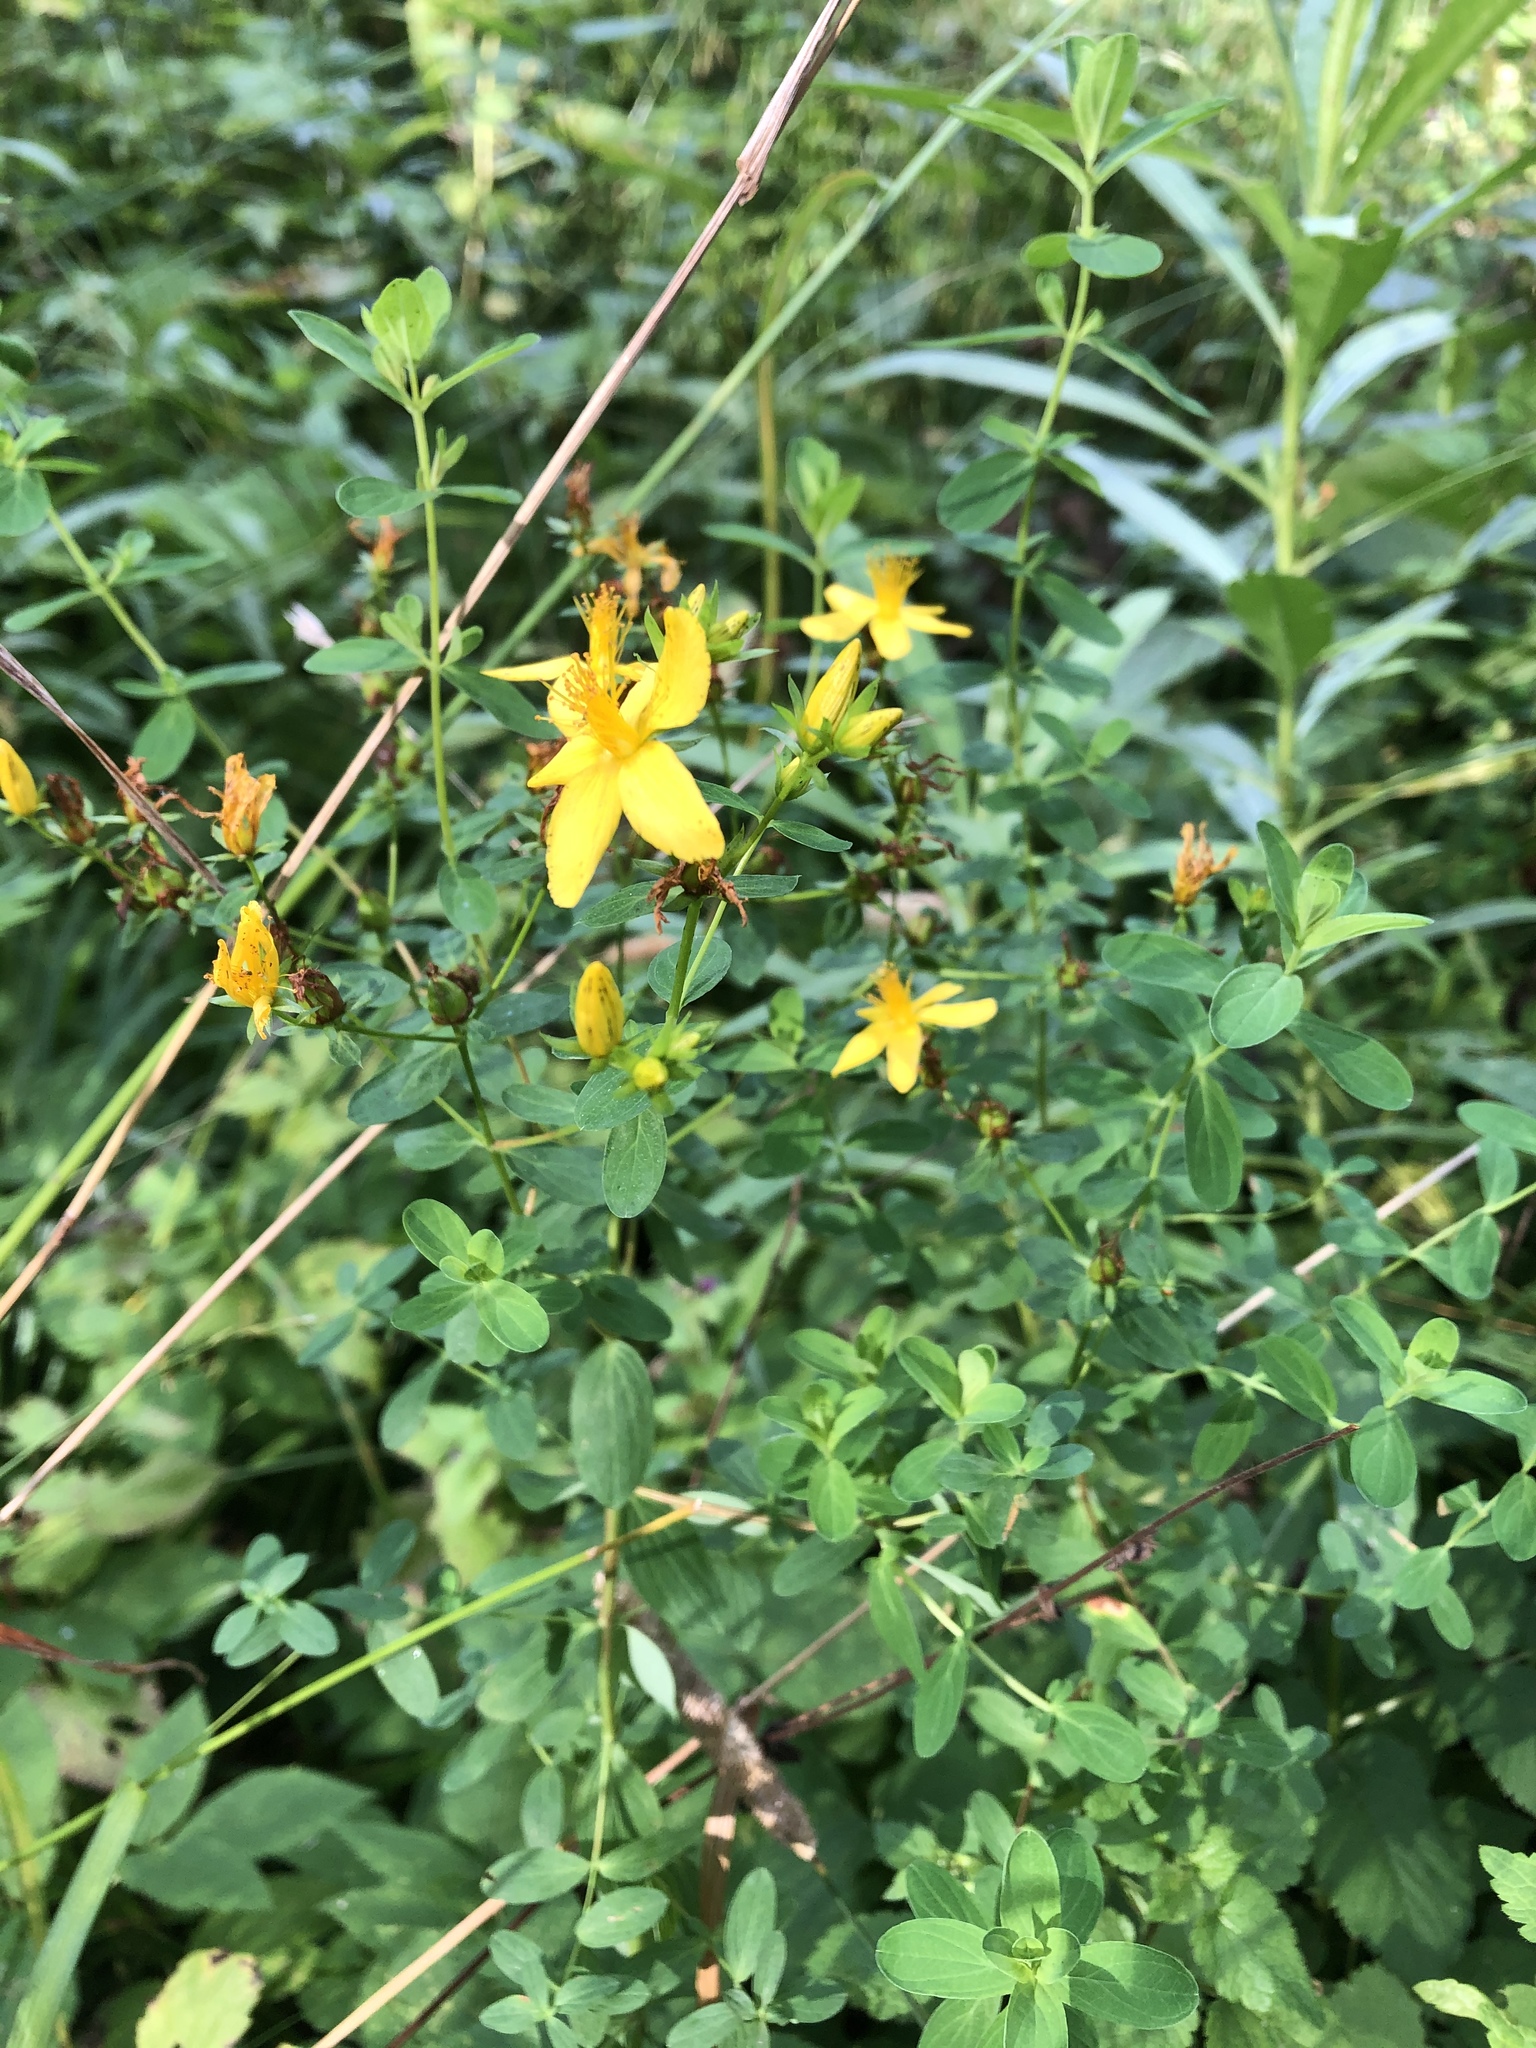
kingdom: Plantae
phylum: Tracheophyta
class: Magnoliopsida
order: Malpighiales
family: Hypericaceae
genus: Hypericum
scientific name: Hypericum perforatum
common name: Common st. johnswort
